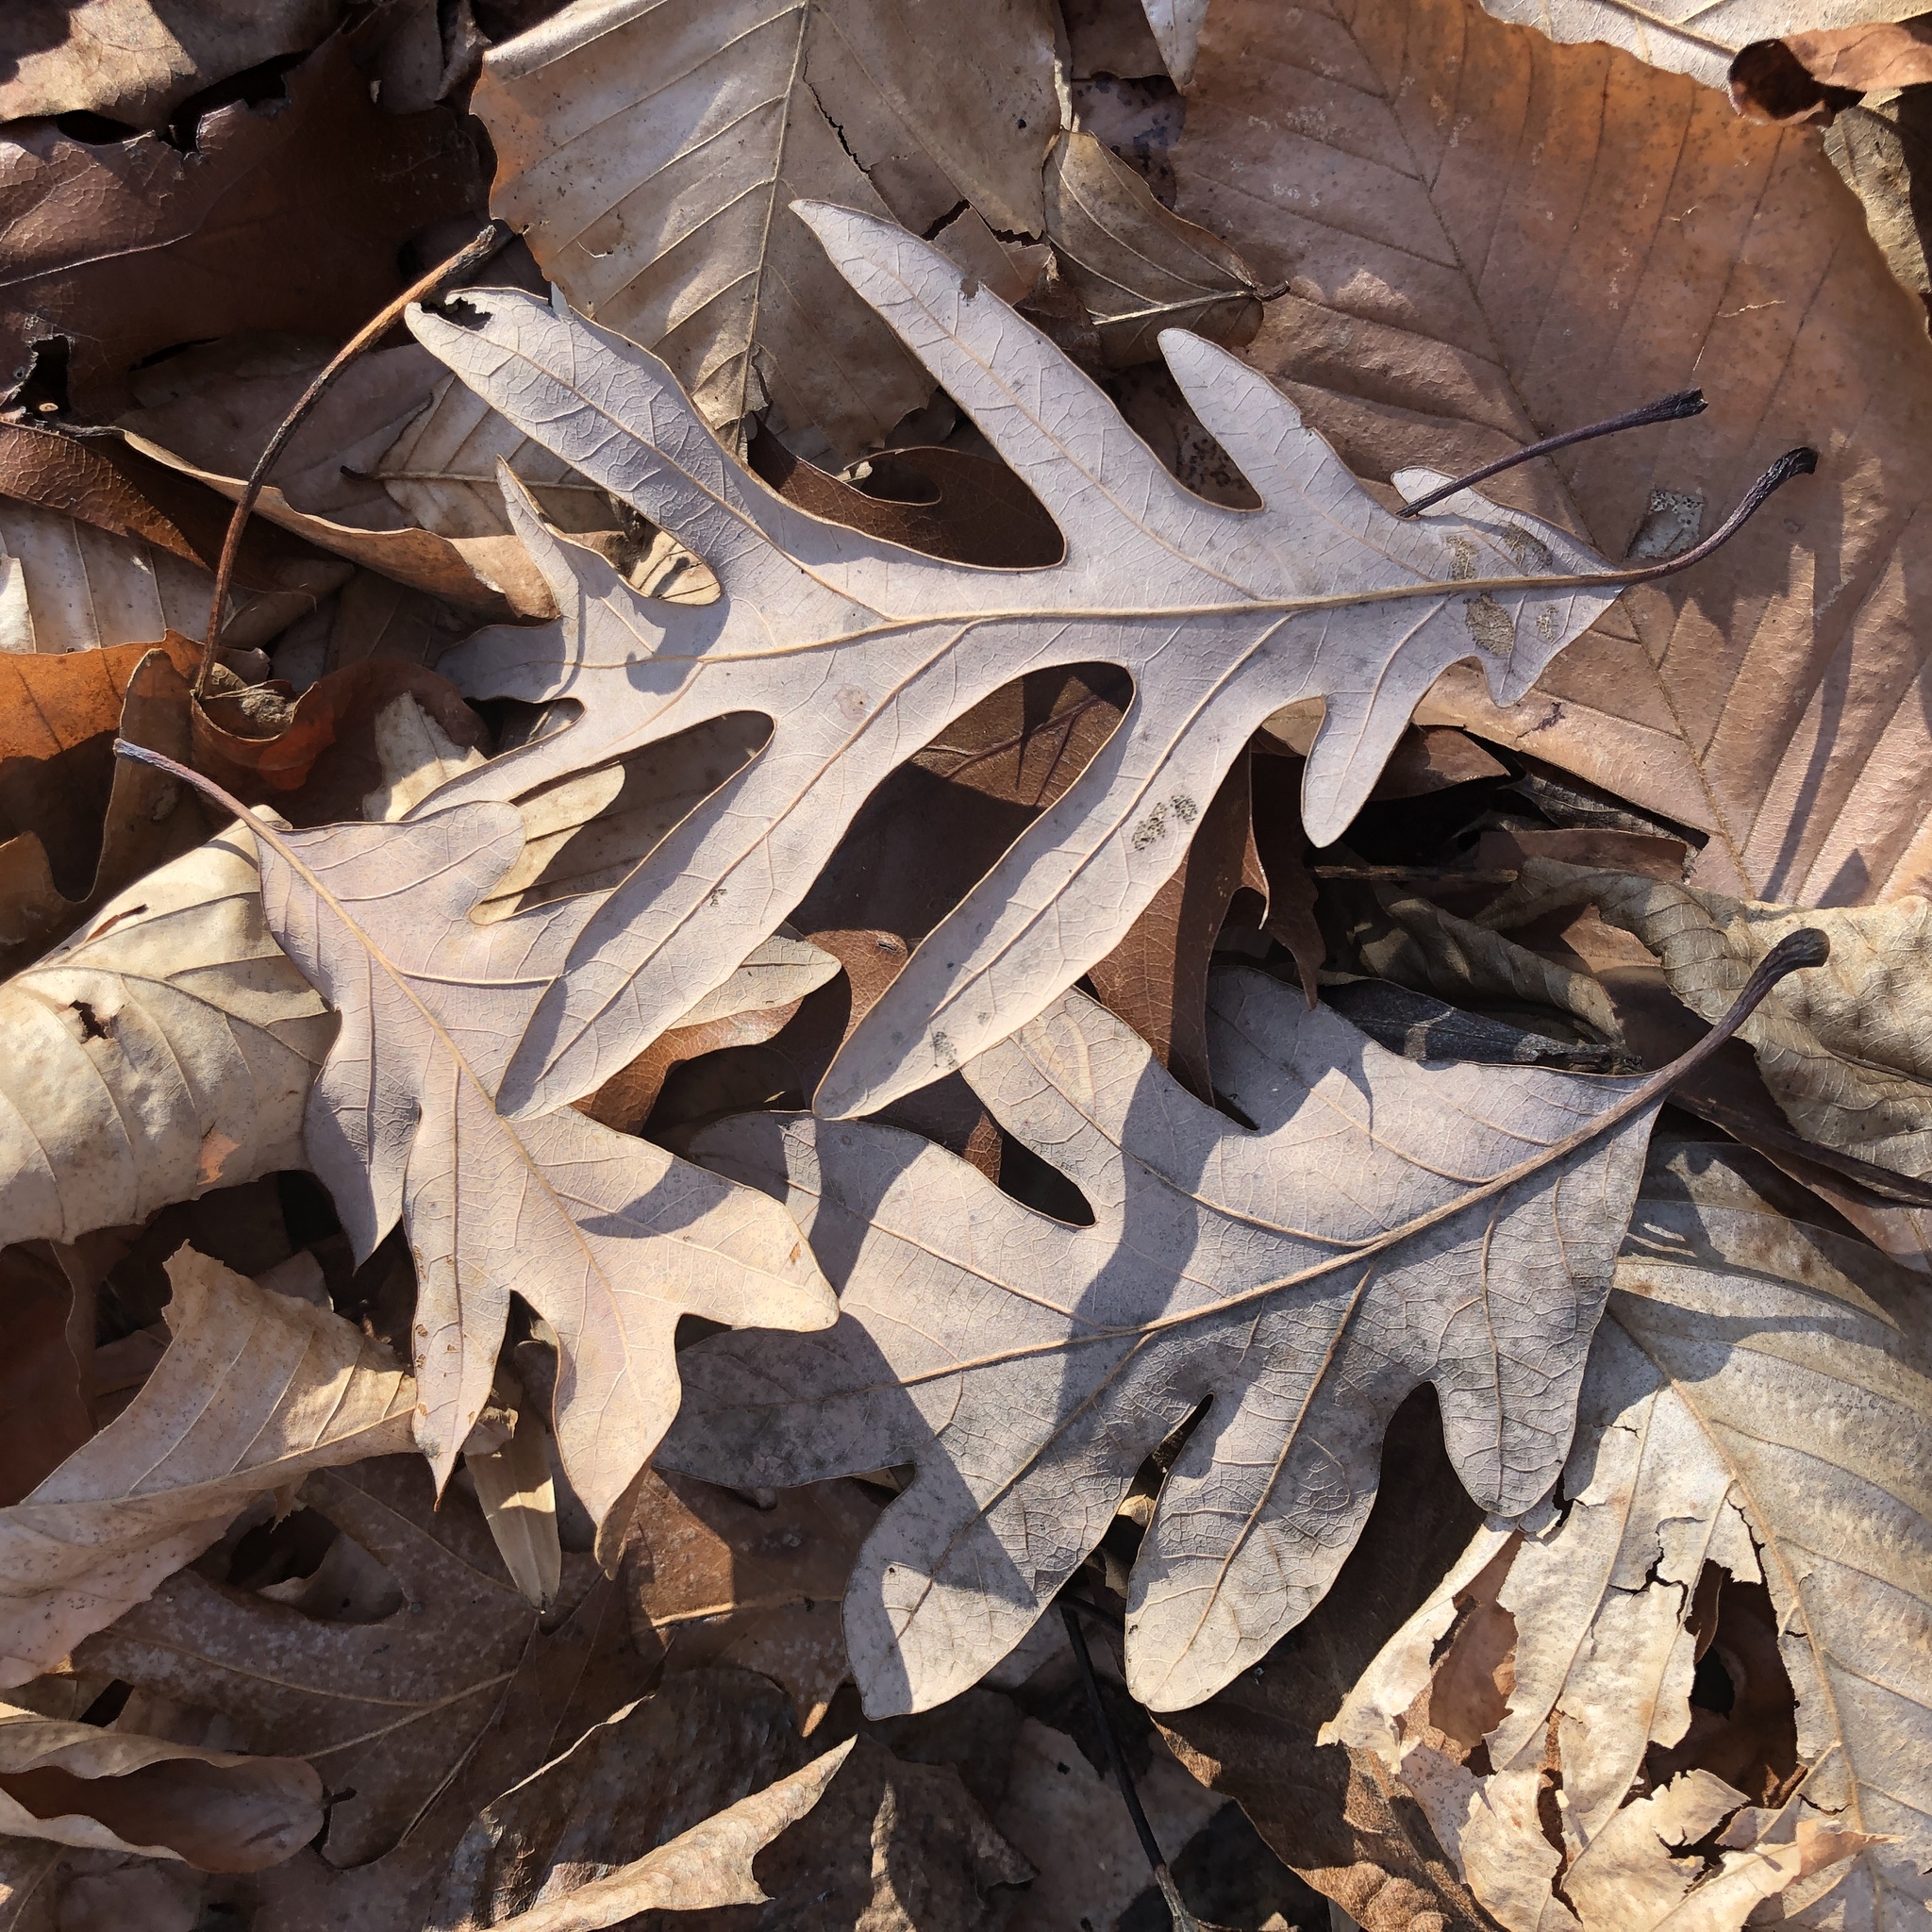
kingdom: Plantae
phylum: Tracheophyta
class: Magnoliopsida
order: Fagales
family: Fagaceae
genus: Quercus
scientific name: Quercus alba
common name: White oak
